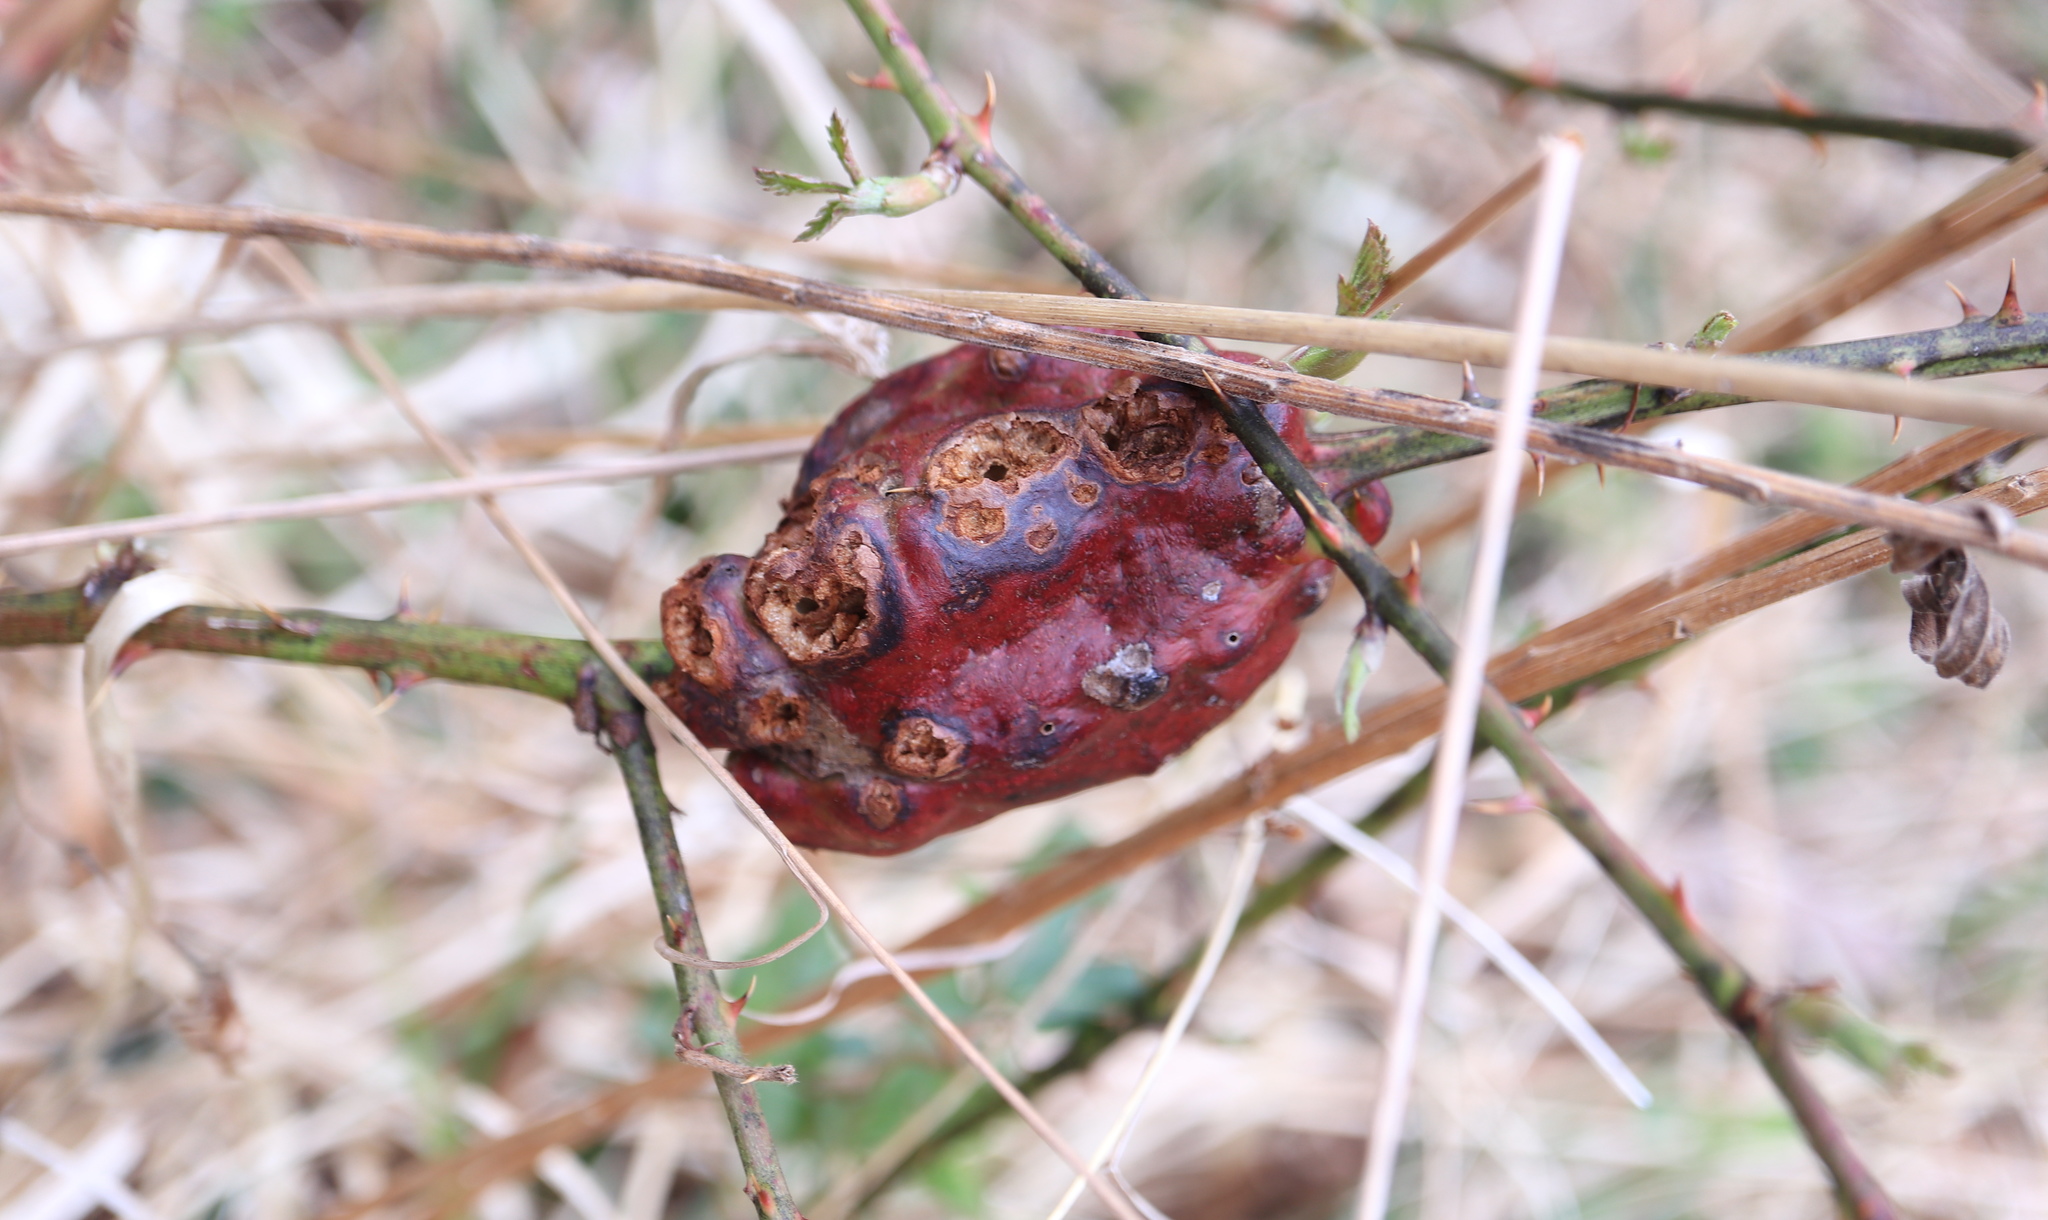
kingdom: Animalia
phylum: Arthropoda
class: Insecta
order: Hymenoptera
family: Cynipidae
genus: Diastrophus
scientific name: Diastrophus
